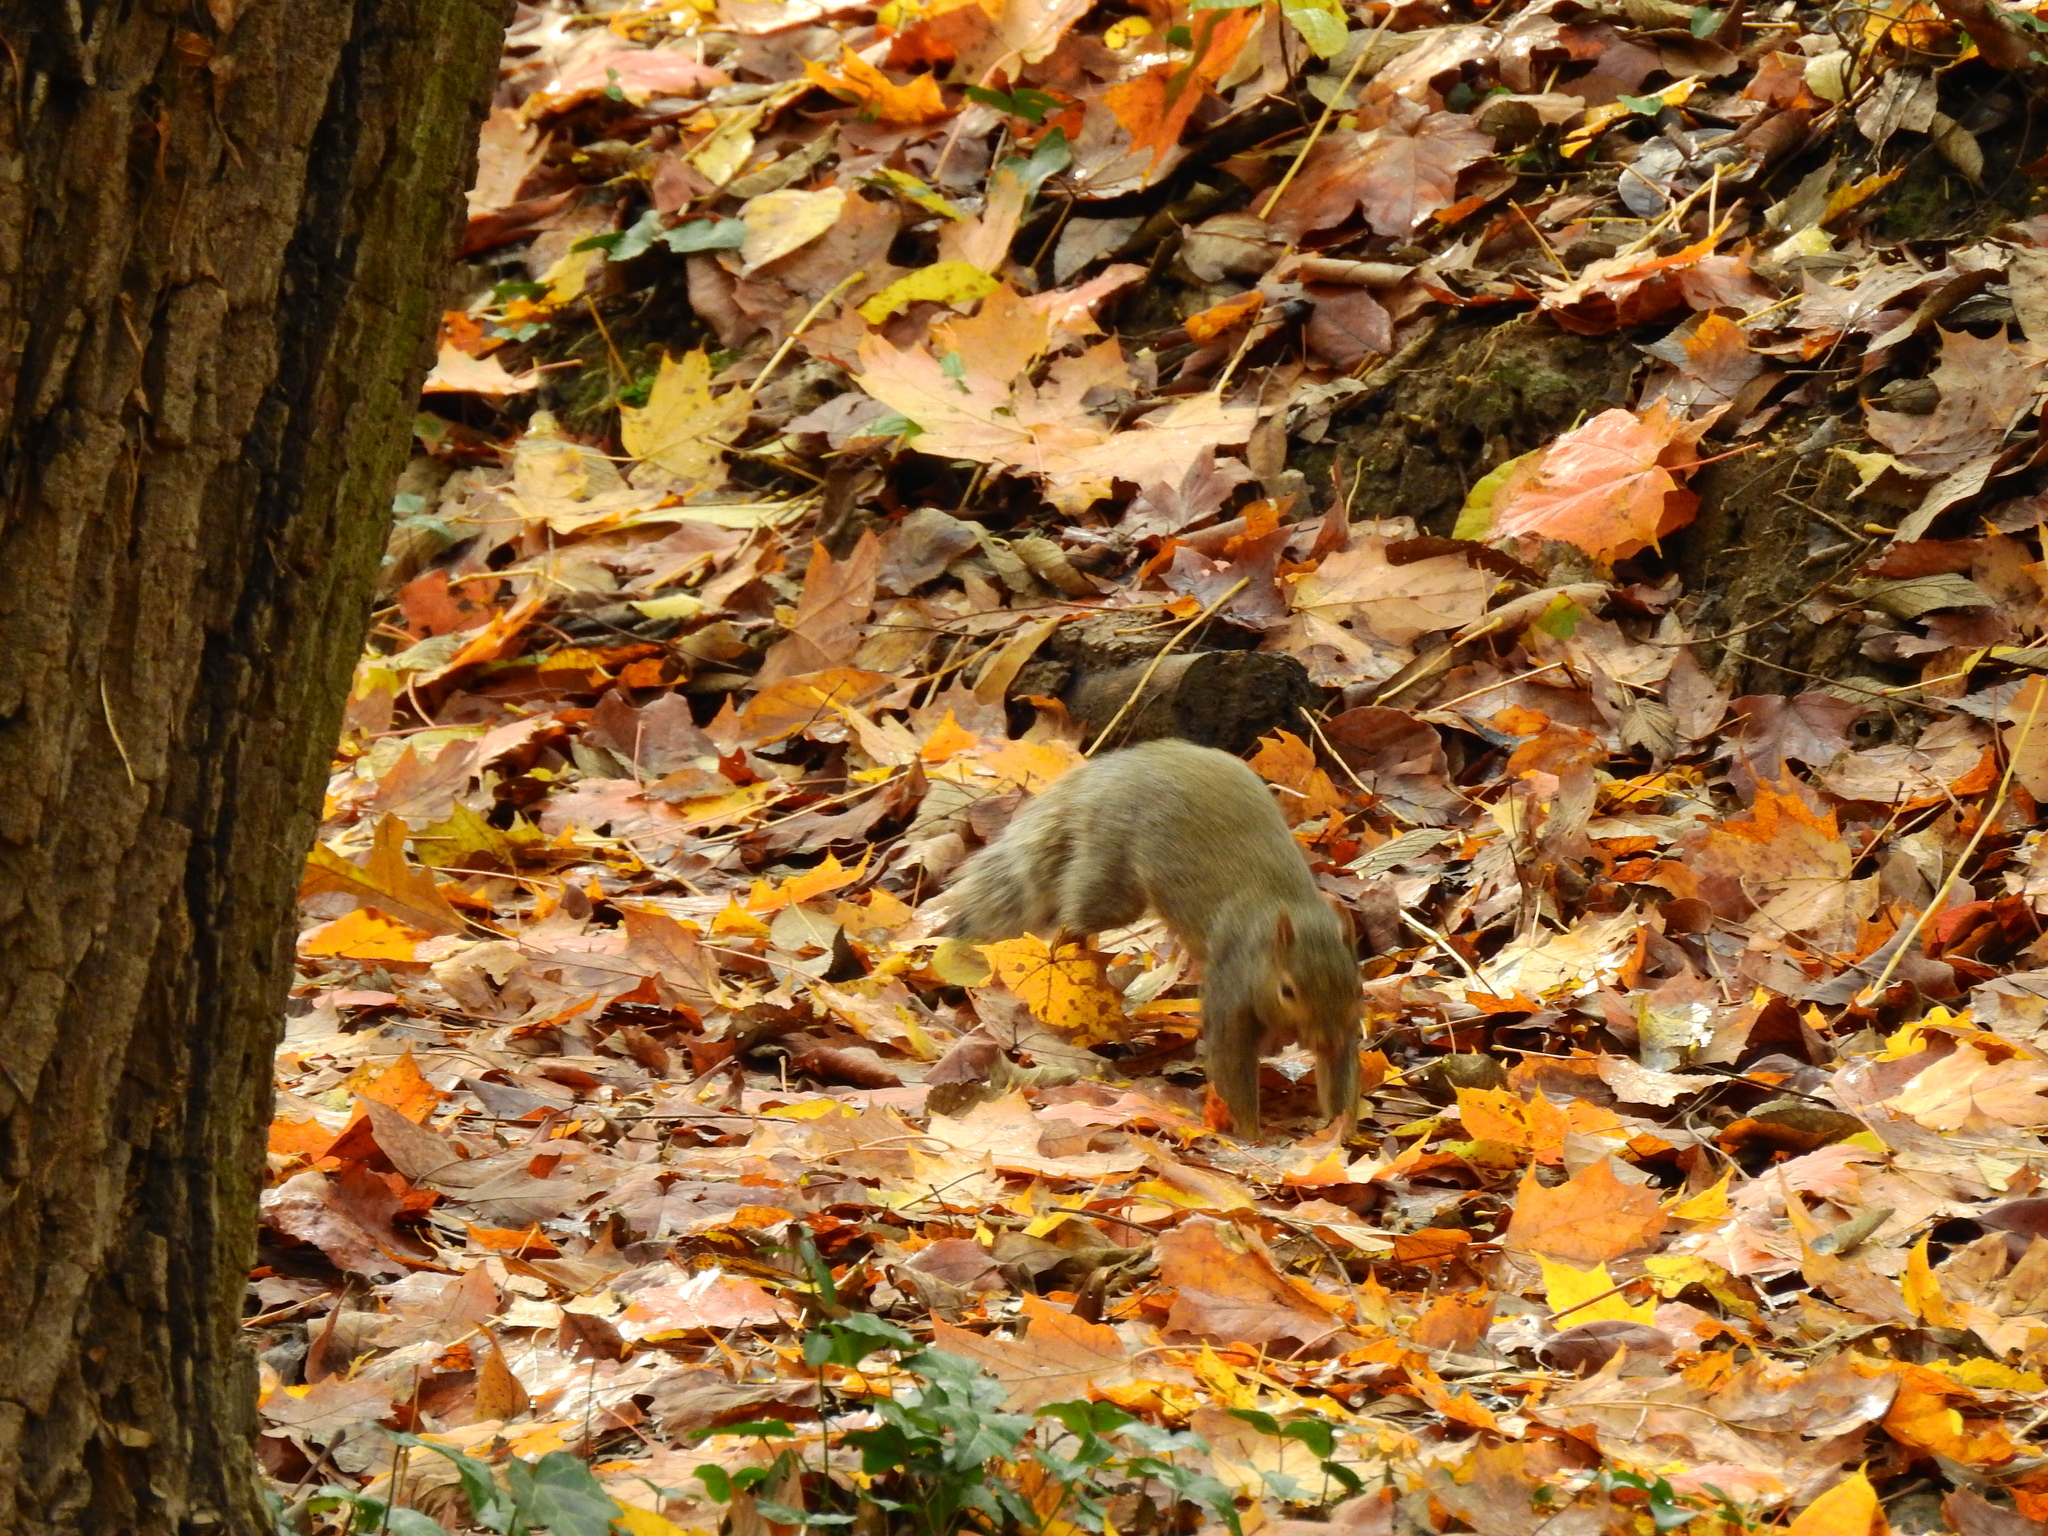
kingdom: Animalia
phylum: Chordata
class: Mammalia
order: Rodentia
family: Sciuridae
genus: Sciurus
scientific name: Sciurus carolinensis
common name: Eastern gray squirrel
